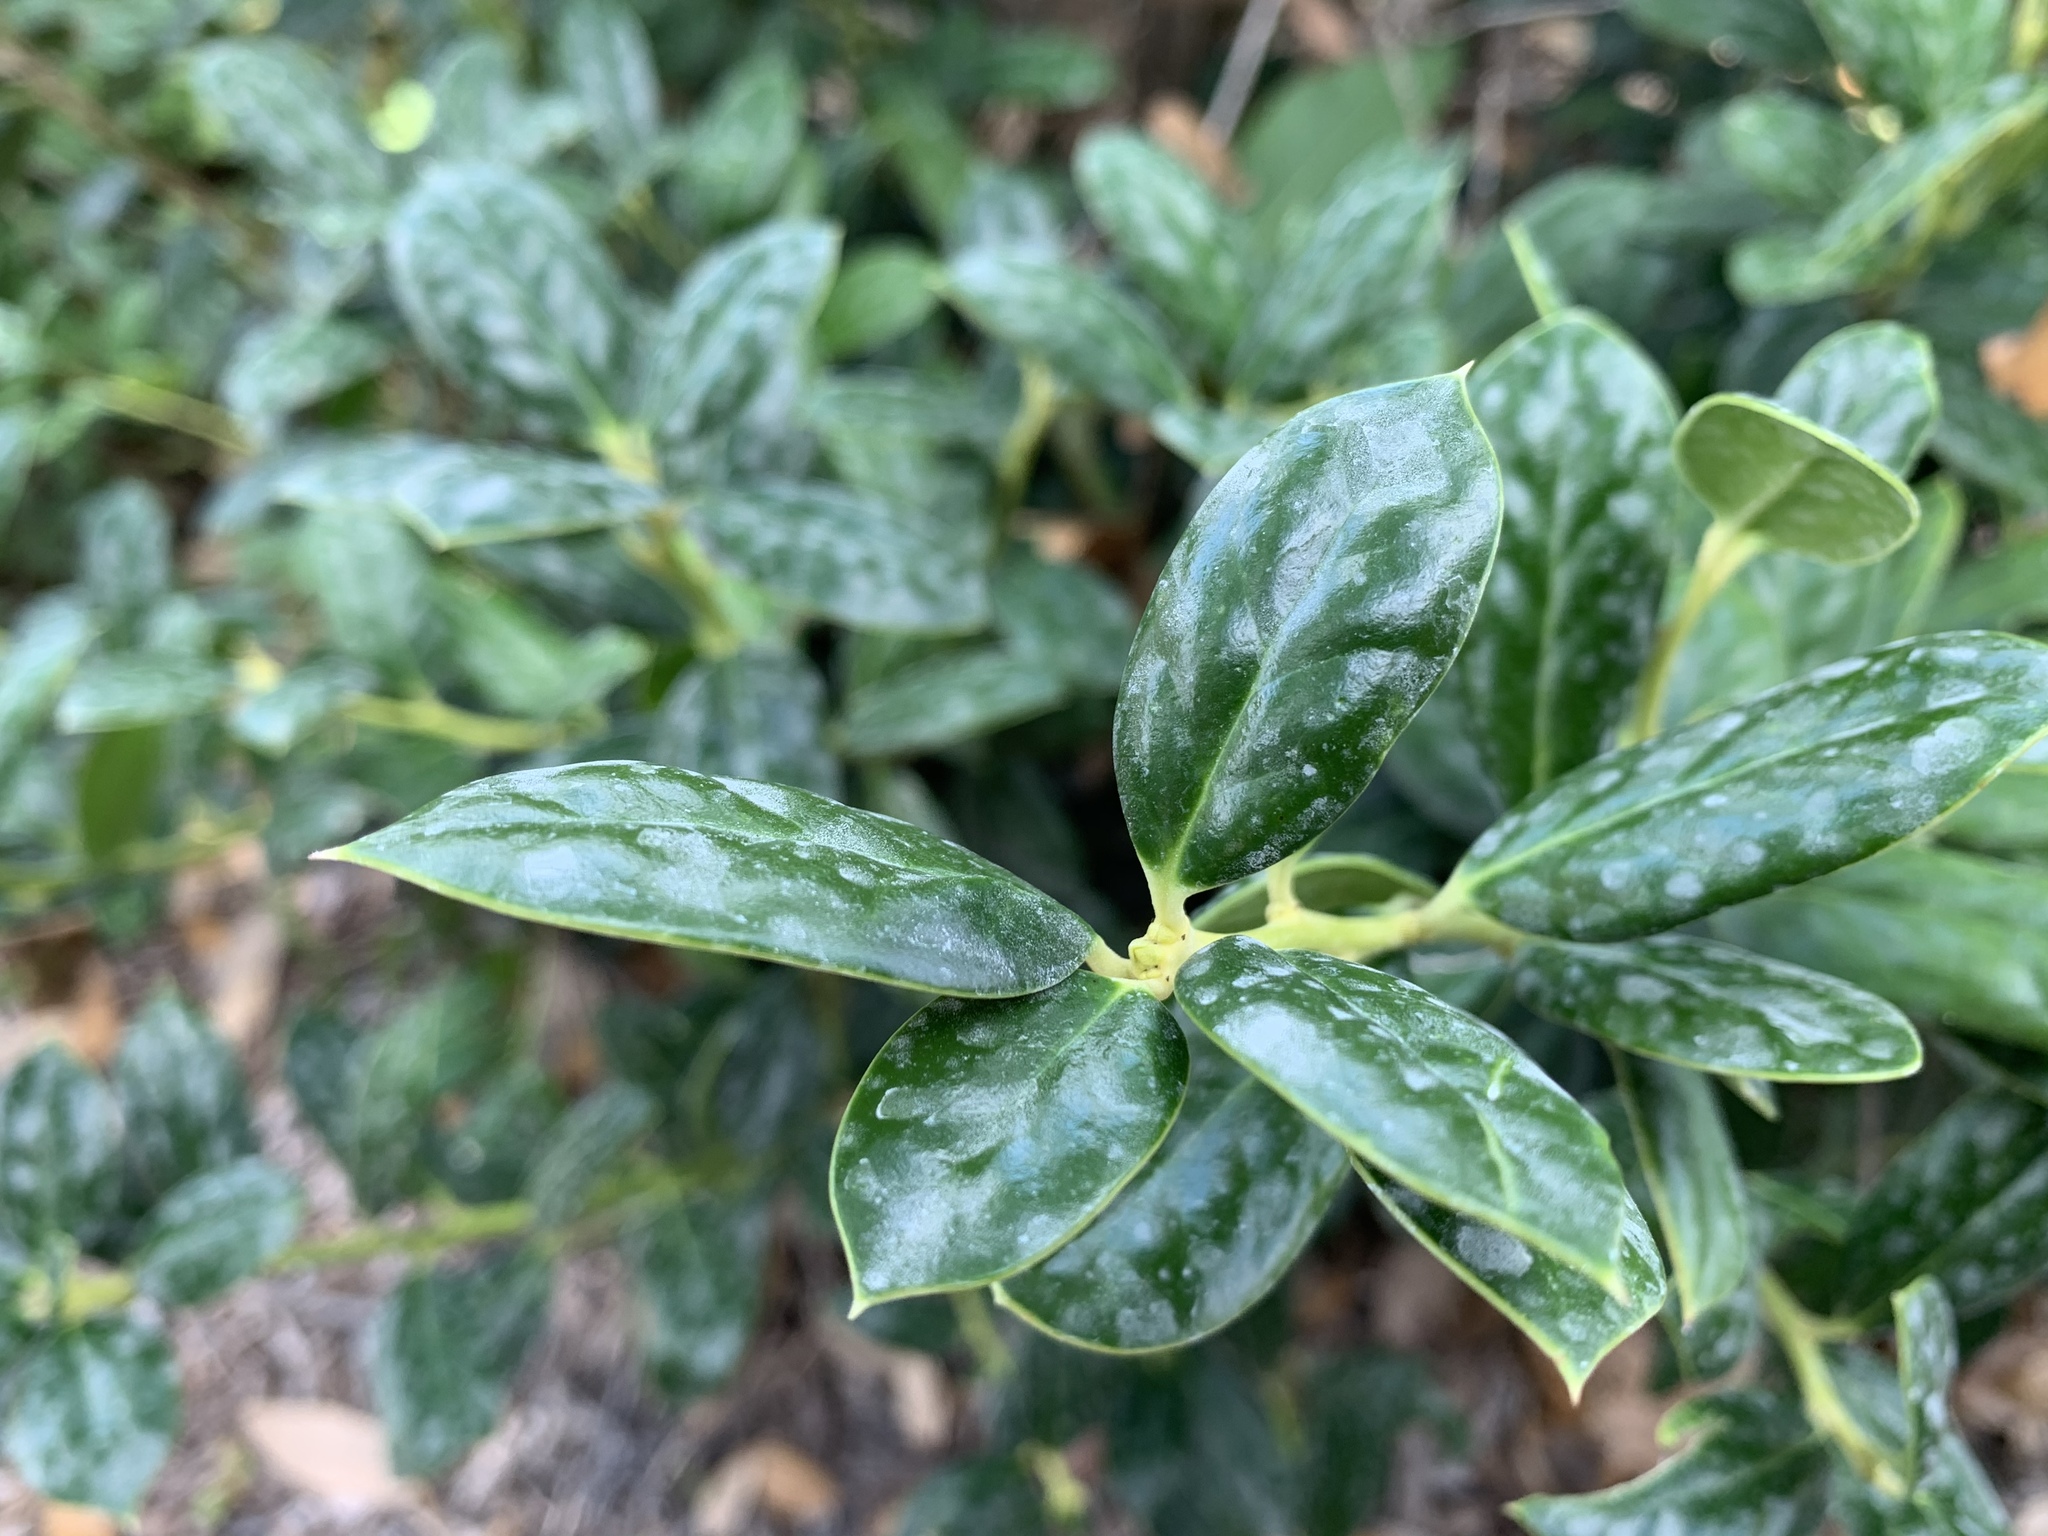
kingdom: Plantae
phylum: Tracheophyta
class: Magnoliopsida
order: Aquifoliales
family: Aquifoliaceae
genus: Ilex
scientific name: Ilex cornuta
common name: Chinese holly
